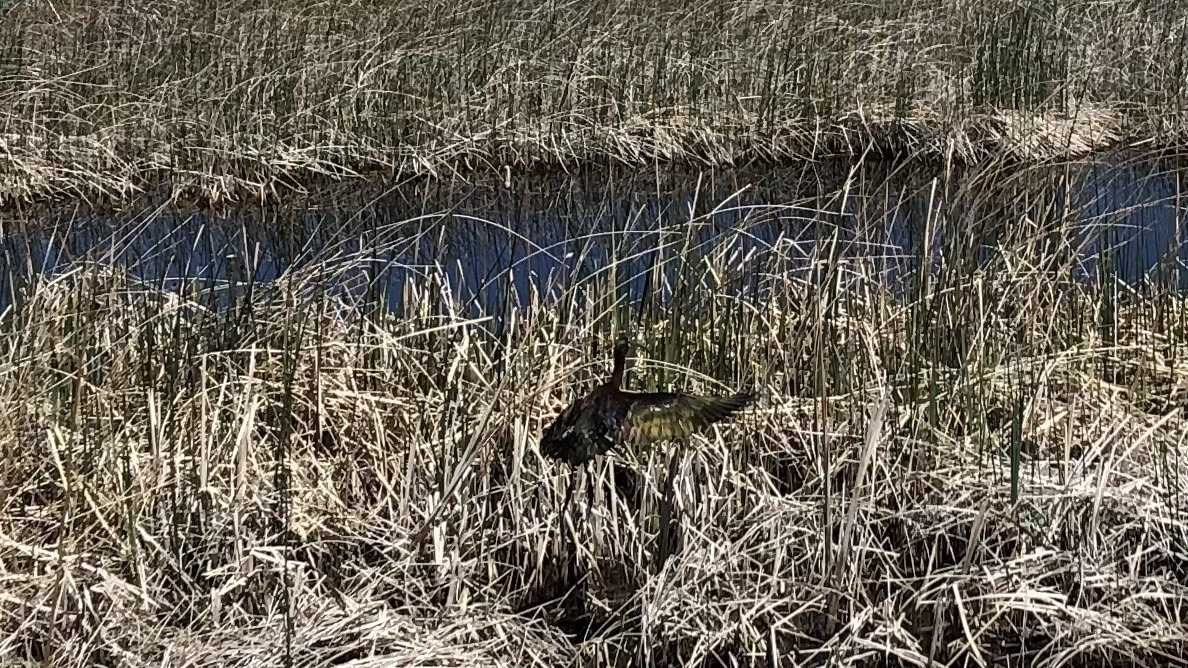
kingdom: Animalia
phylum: Chordata
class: Aves
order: Pelecaniformes
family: Threskiornithidae
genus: Plegadis
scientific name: Plegadis chihi
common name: White-faced ibis
